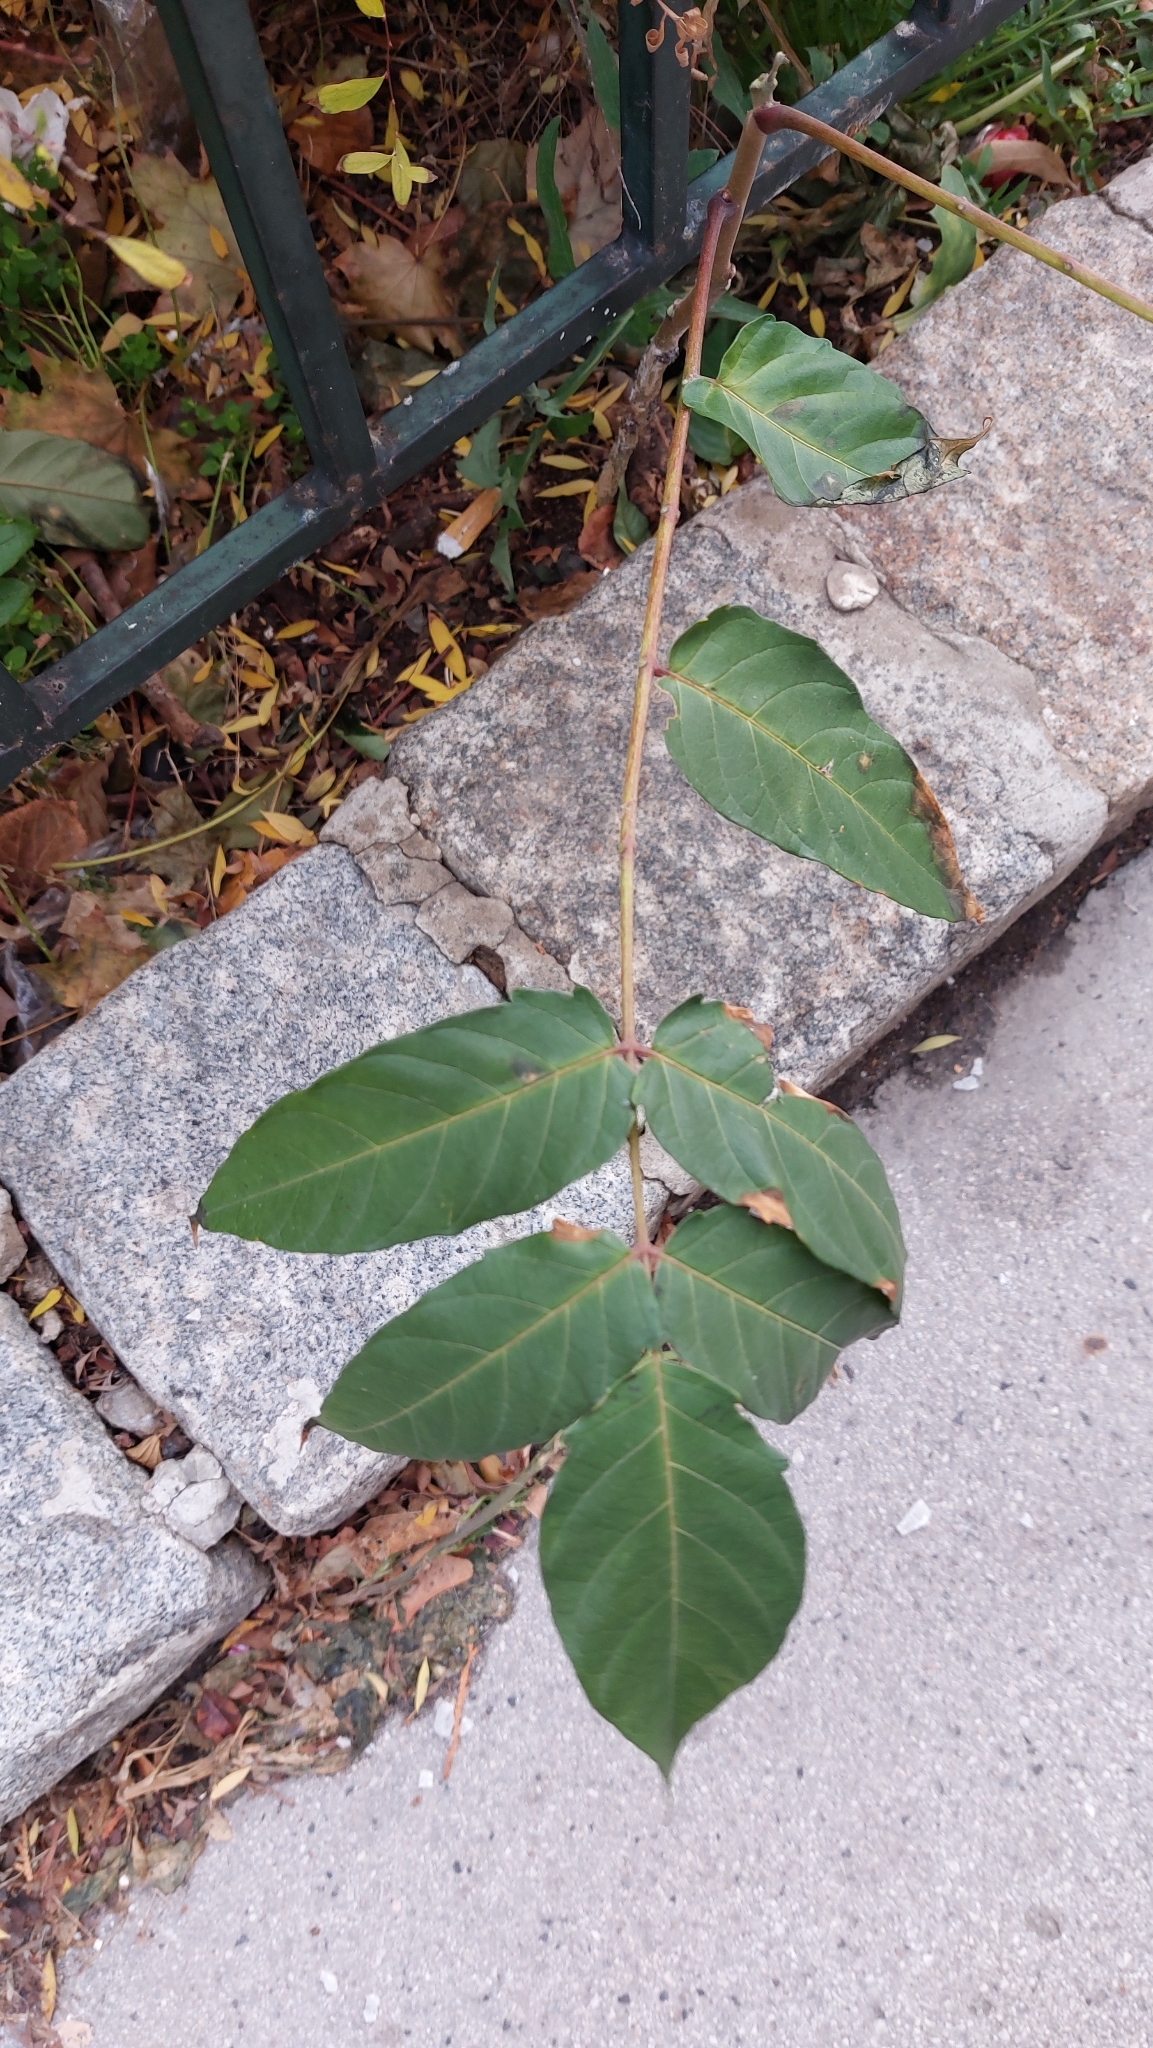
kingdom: Plantae
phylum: Tracheophyta
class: Magnoliopsida
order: Sapindales
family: Simaroubaceae
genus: Ailanthus
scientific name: Ailanthus altissima
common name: Tree-of-heaven
